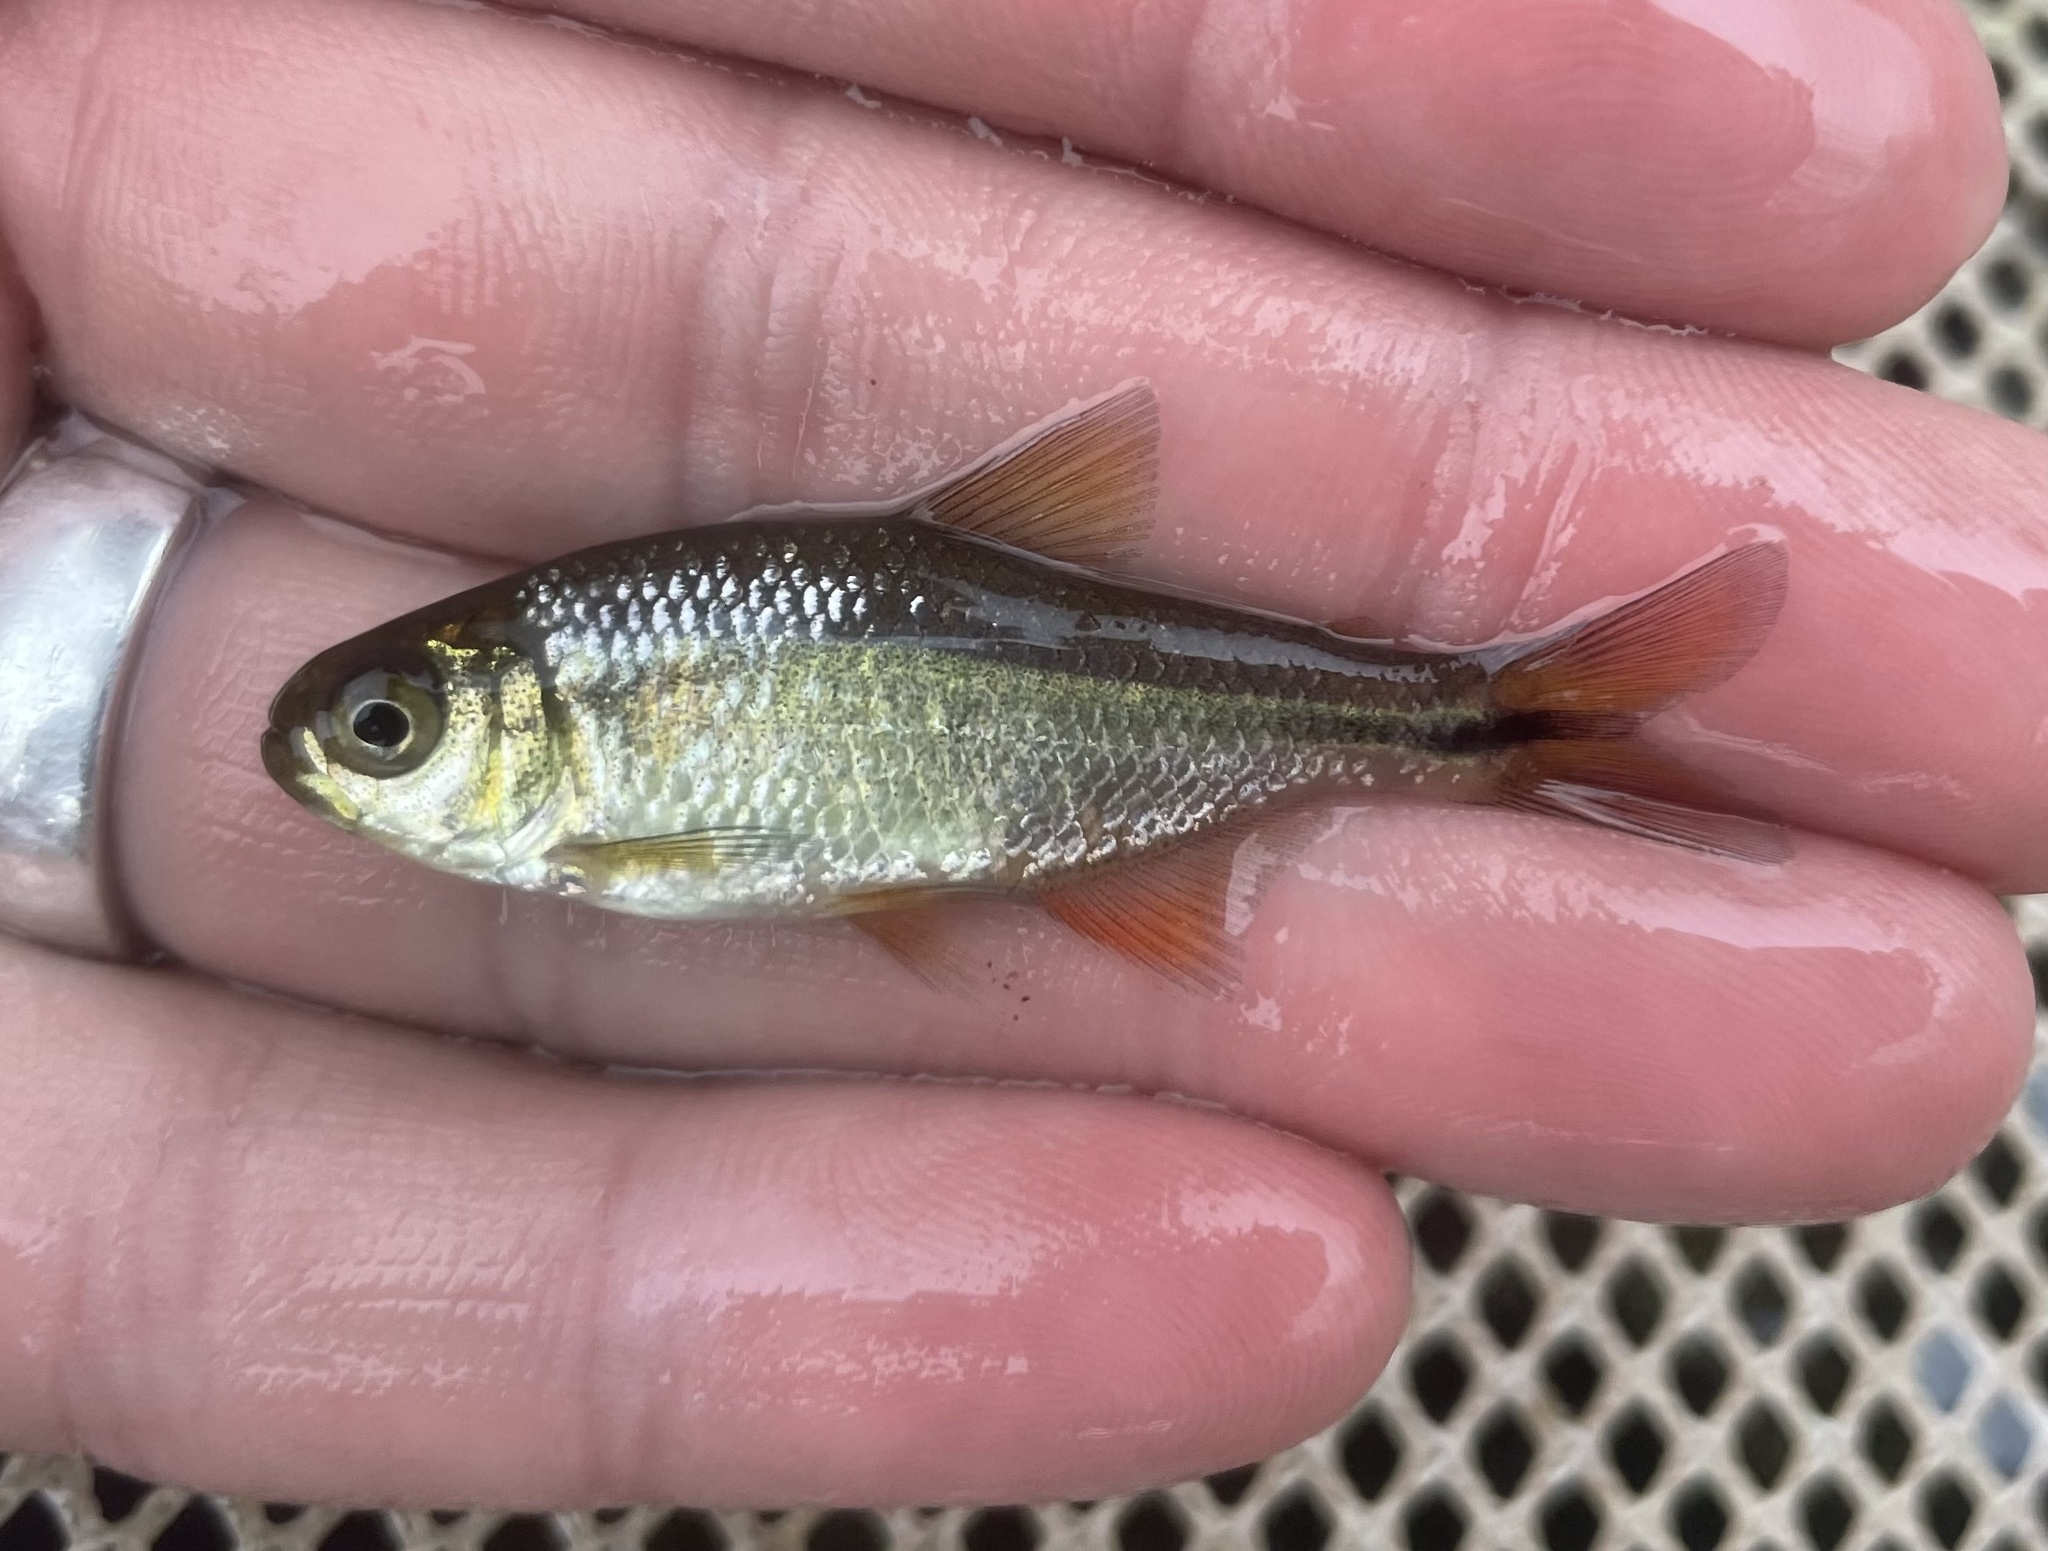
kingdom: Animalia
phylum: Chordata
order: Characiformes
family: Characidae
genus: Astyanax
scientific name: Astyanax mexicanus
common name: Mexican tetra
